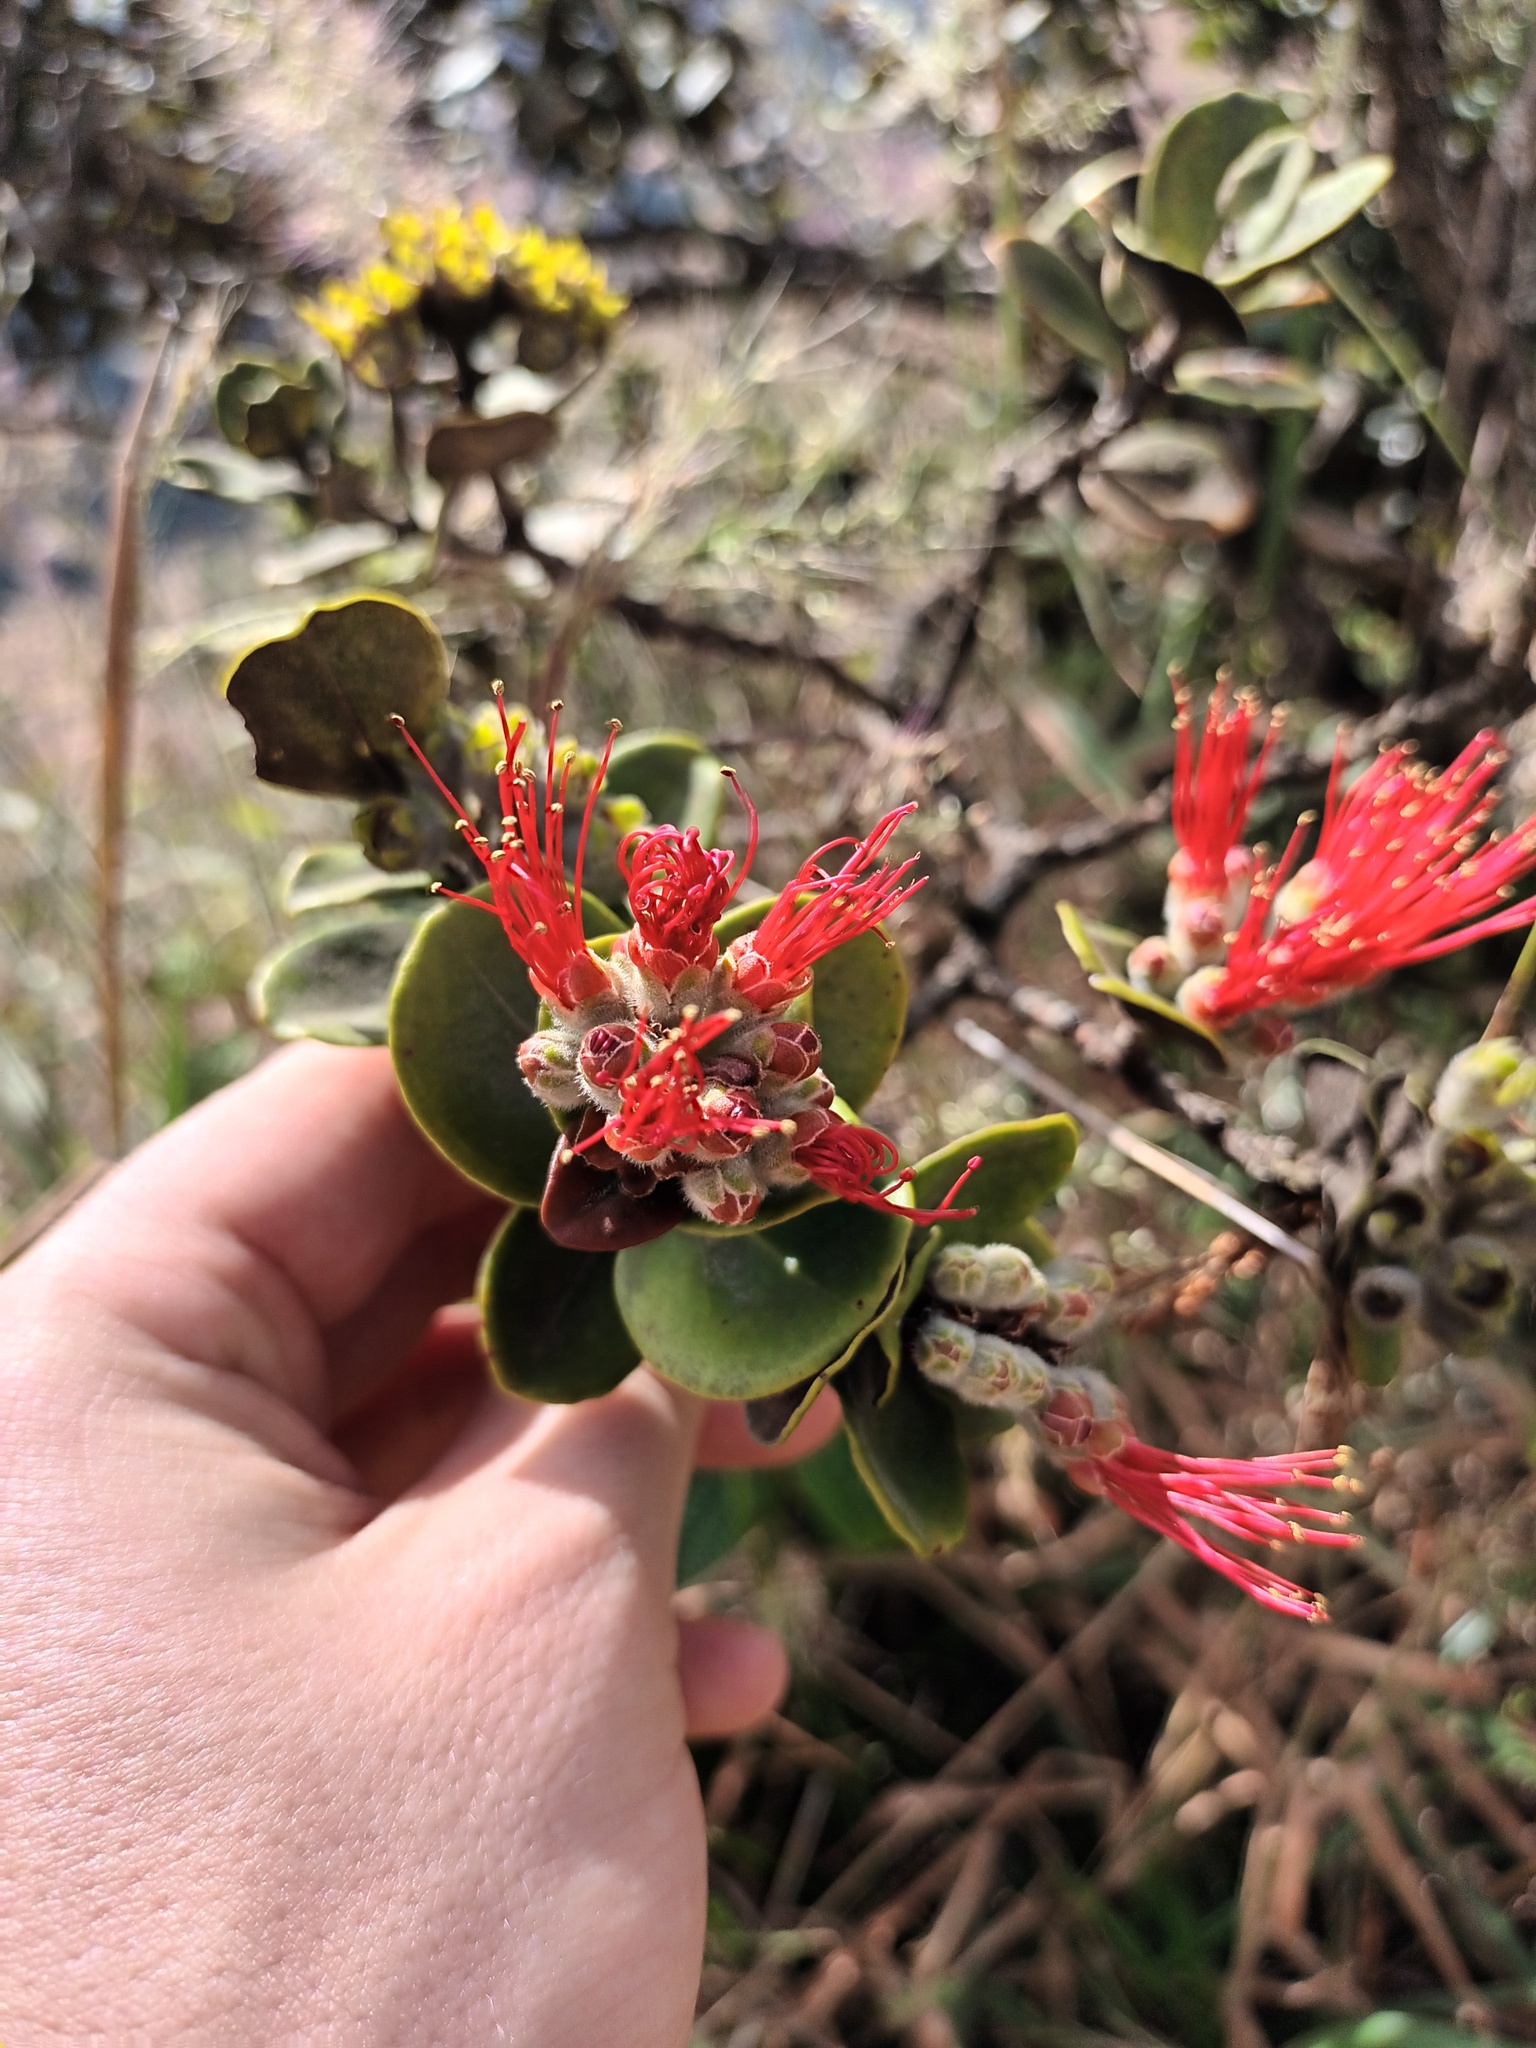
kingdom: Plantae
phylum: Tracheophyta
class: Magnoliopsida
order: Myrtales
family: Myrtaceae
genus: Metrosideros
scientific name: Metrosideros polymorpha
